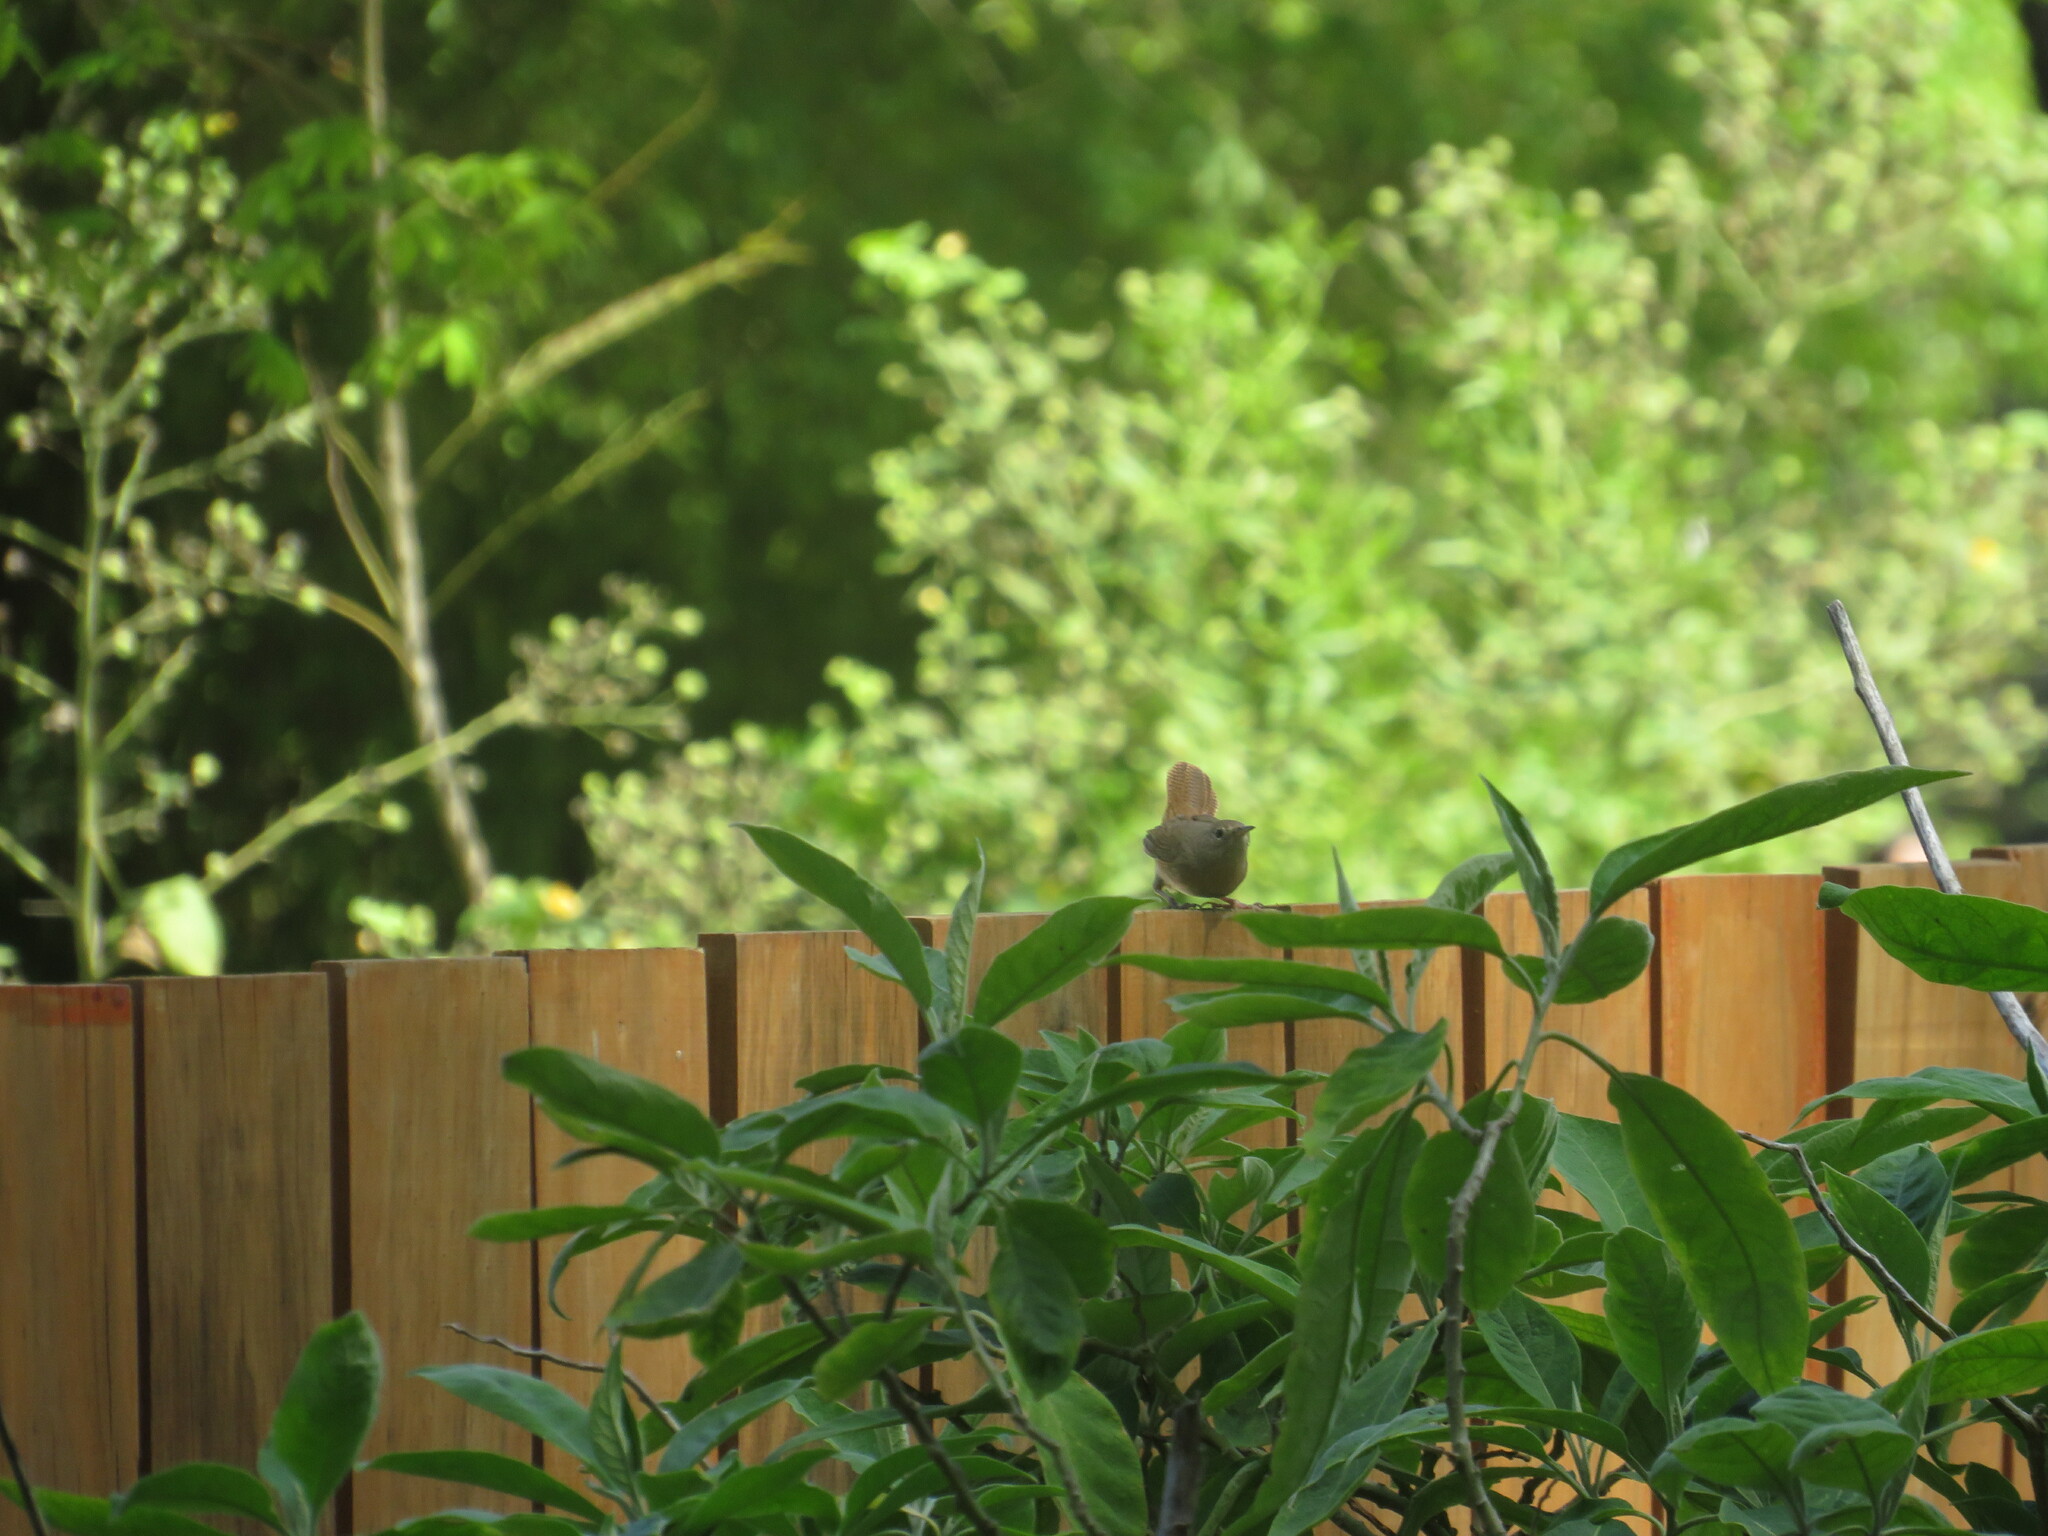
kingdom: Animalia
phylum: Chordata
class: Aves
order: Passeriformes
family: Troglodytidae
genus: Troglodytes
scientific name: Troglodytes aedon
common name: House wren
